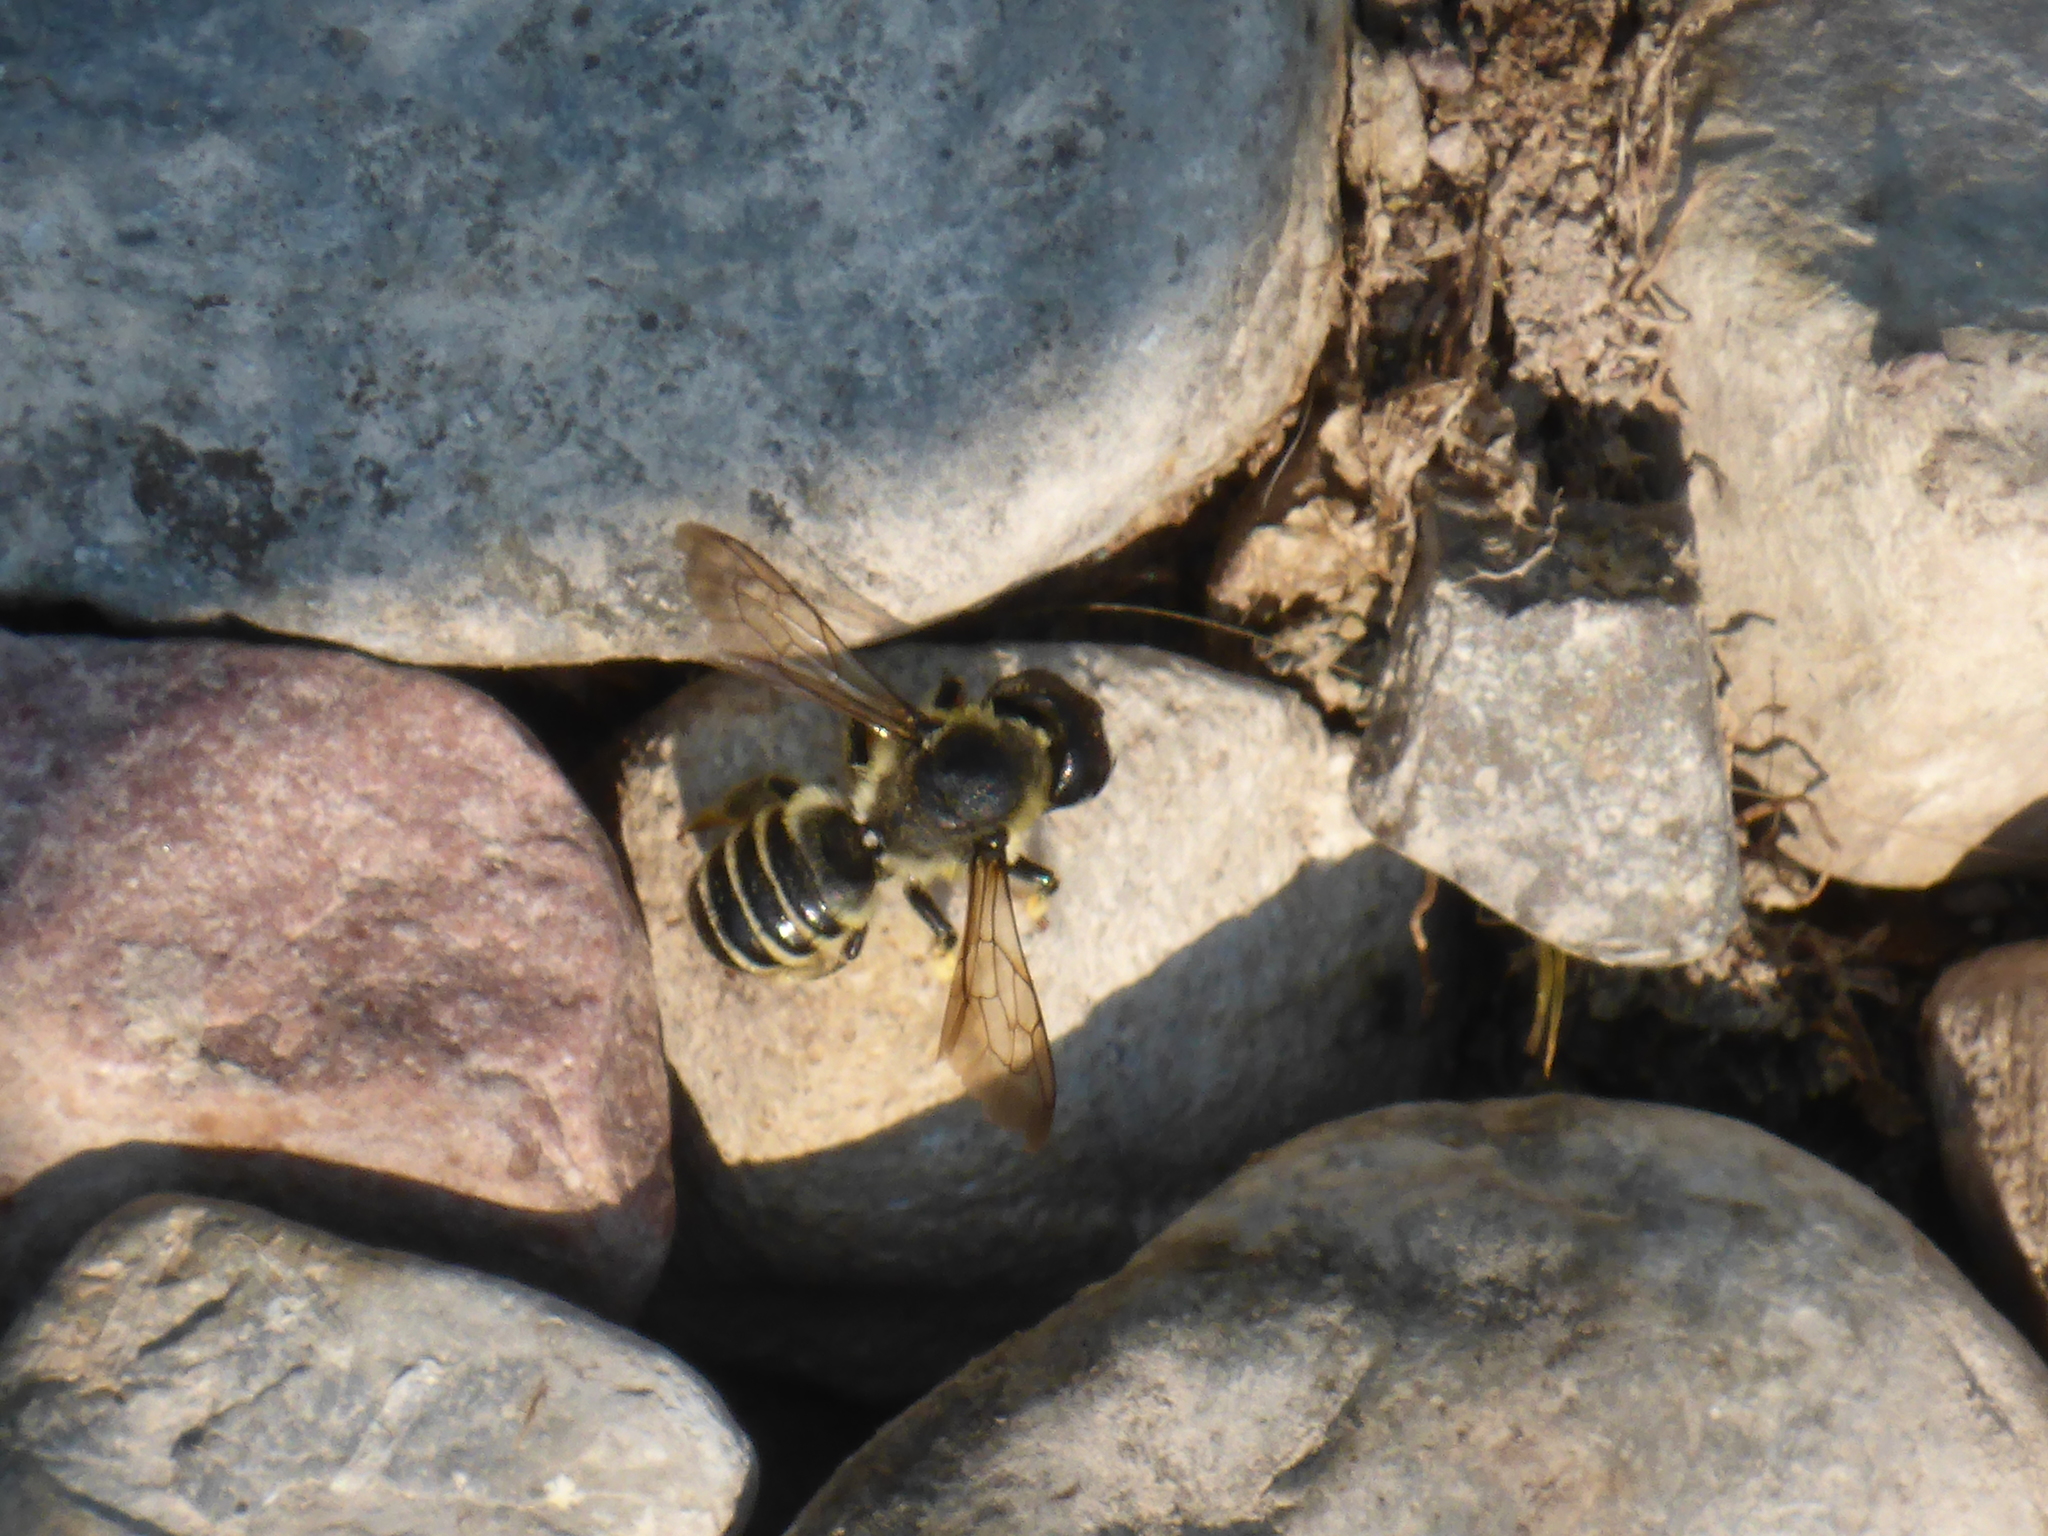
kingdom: Animalia
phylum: Arthropoda
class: Insecta
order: Hymenoptera
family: Megachilidae
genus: Megachile
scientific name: Megachile pugnata
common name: Pugnacious leafcutter bee
